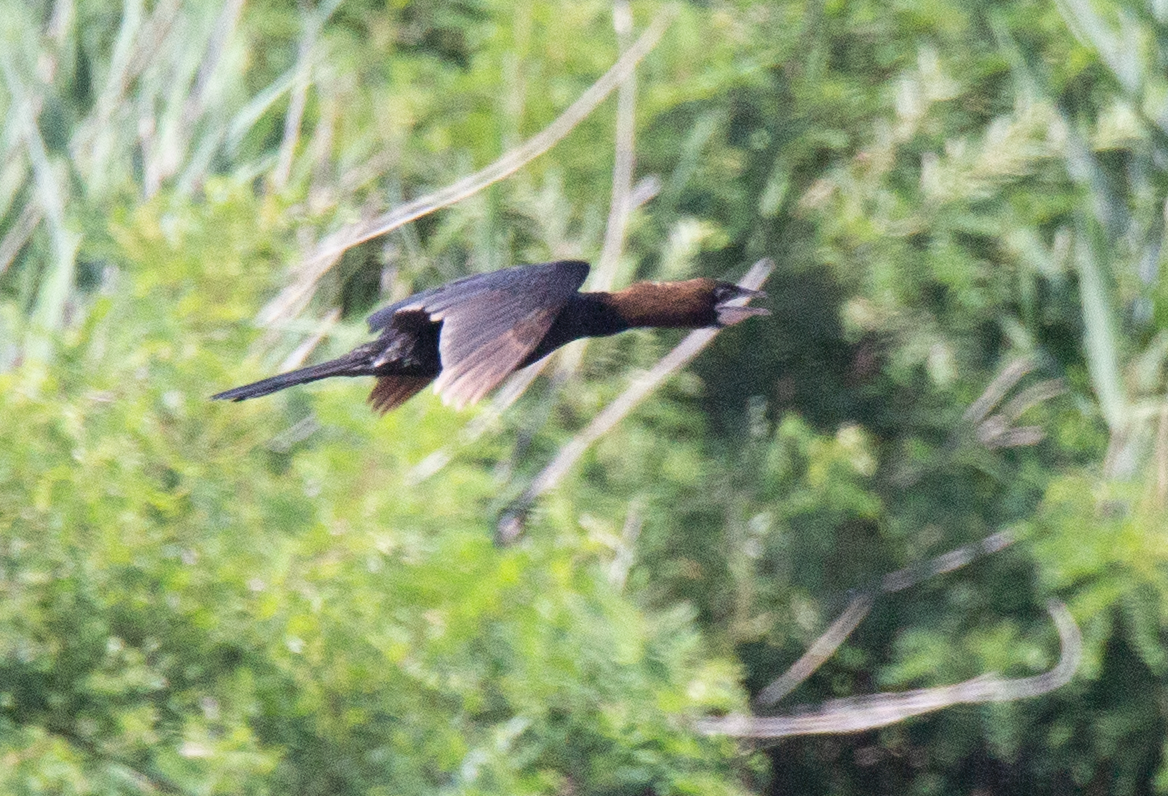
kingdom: Animalia
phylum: Chordata
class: Aves
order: Suliformes
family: Phalacrocoracidae
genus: Microcarbo
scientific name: Microcarbo pygmaeus
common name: Pygmy cormorant
